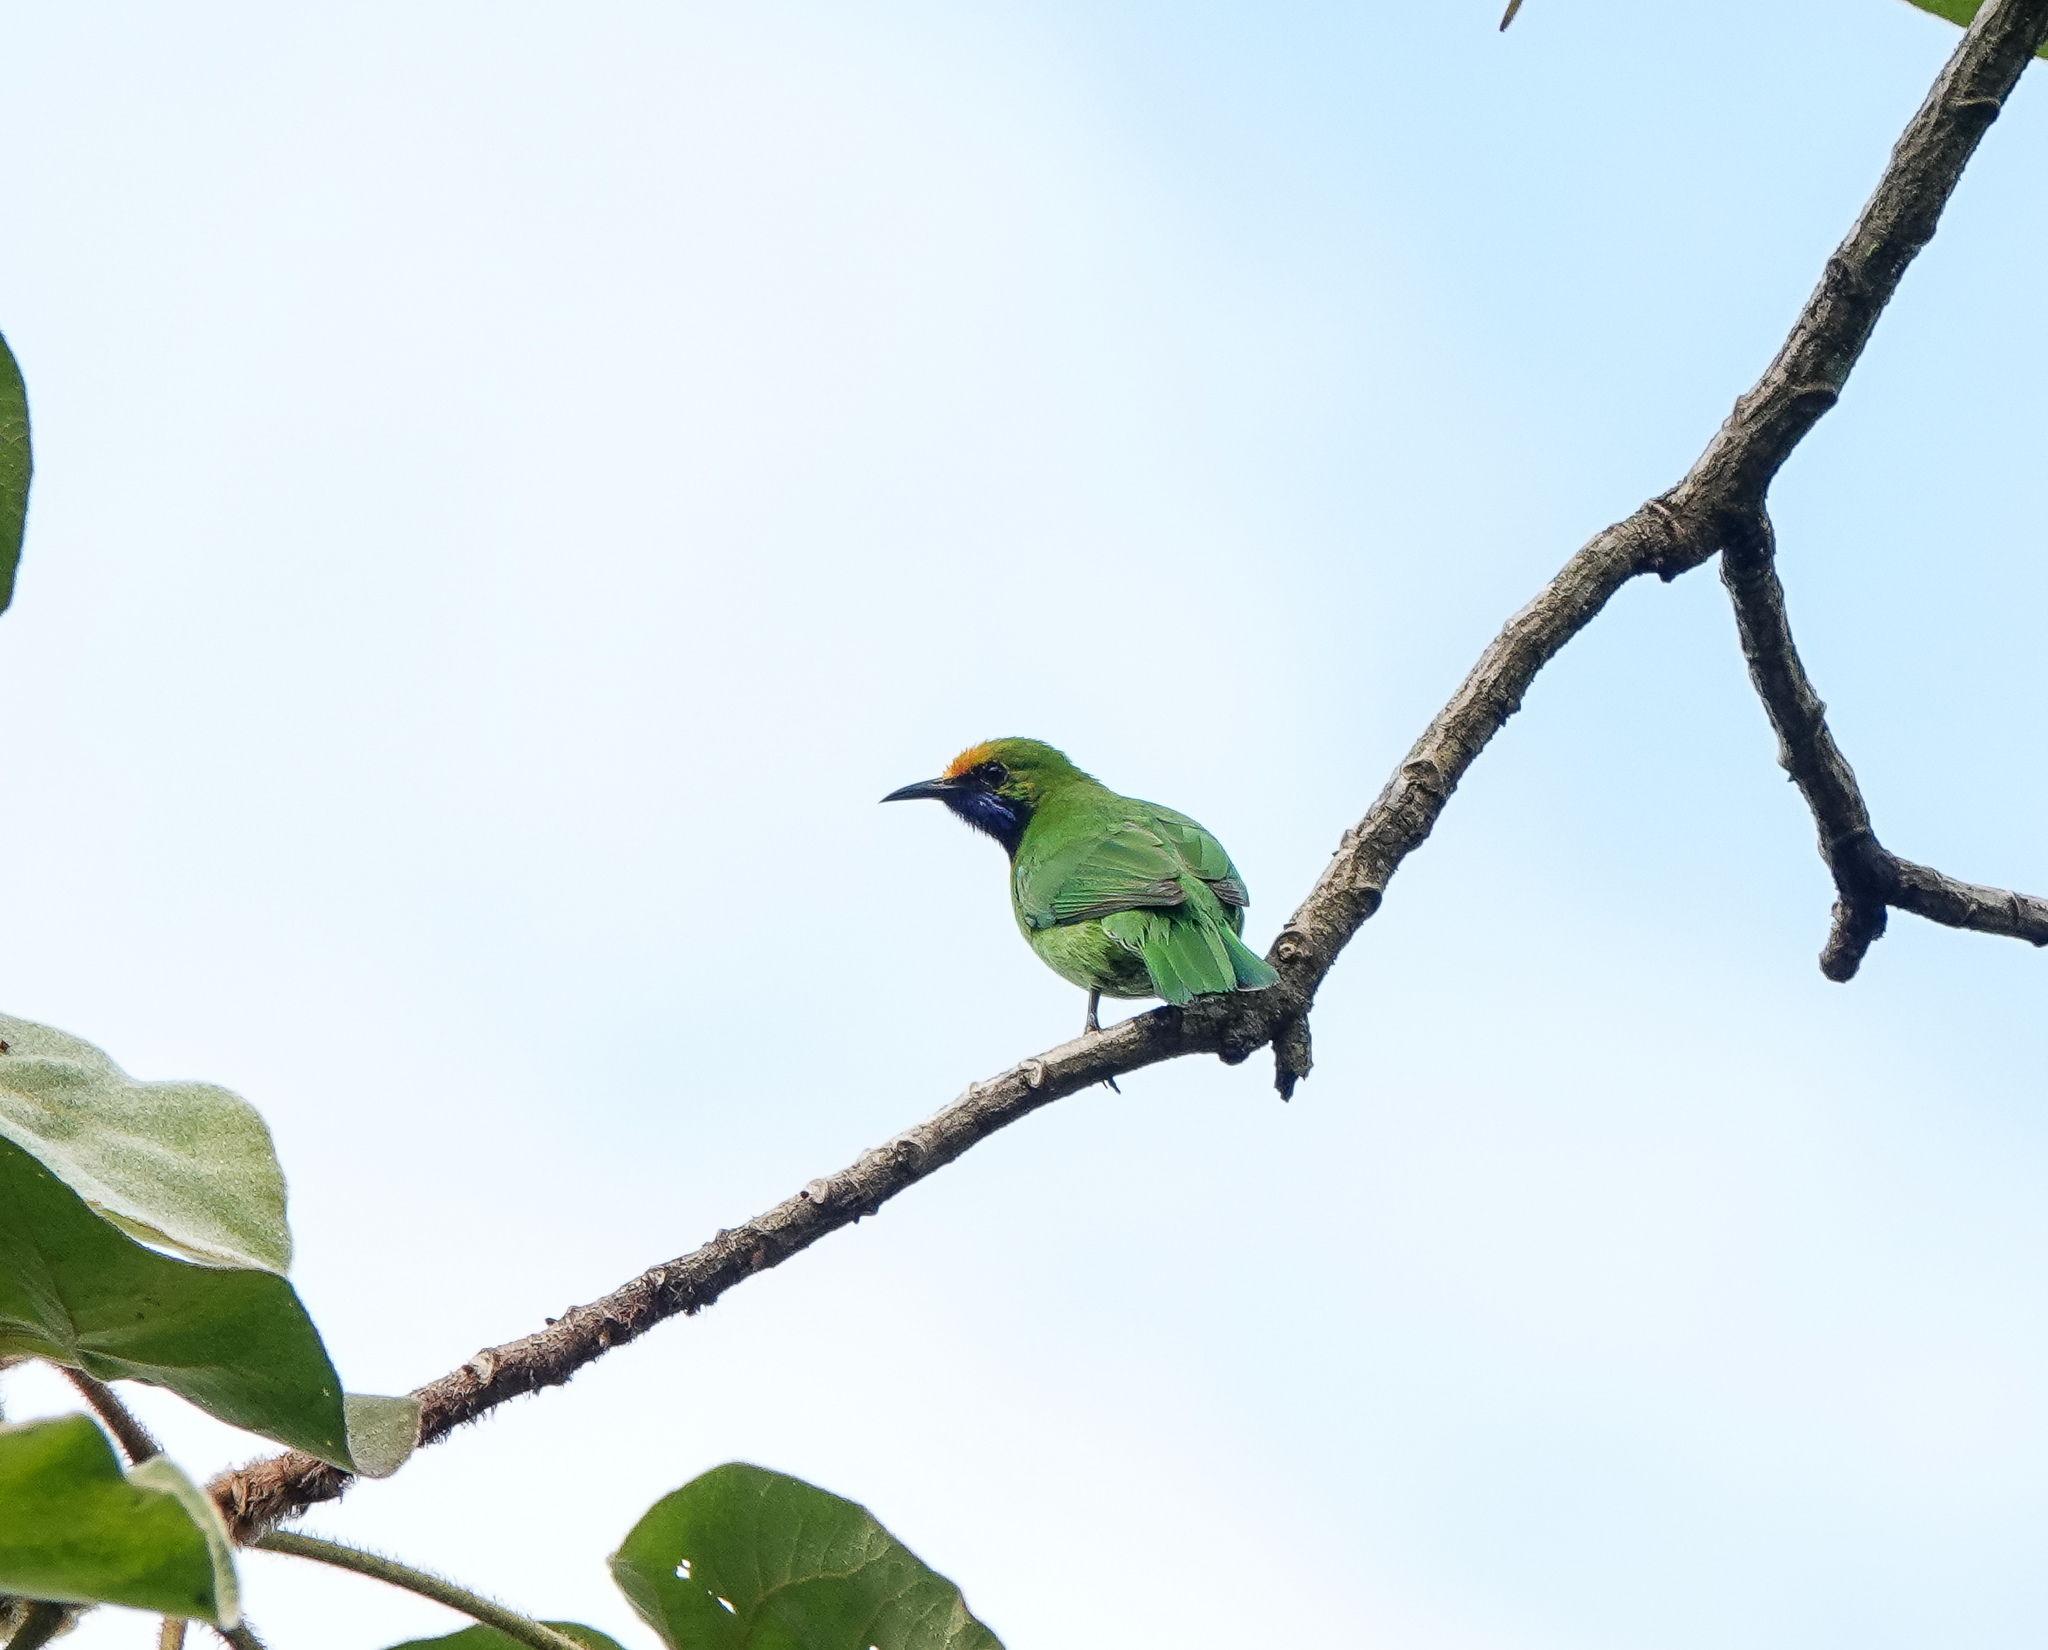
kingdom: Animalia
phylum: Chordata
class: Aves
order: Passeriformes
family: Chloropseidae
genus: Chloropsis
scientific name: Chloropsis aurifrons
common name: Golden-fronted leafbird
